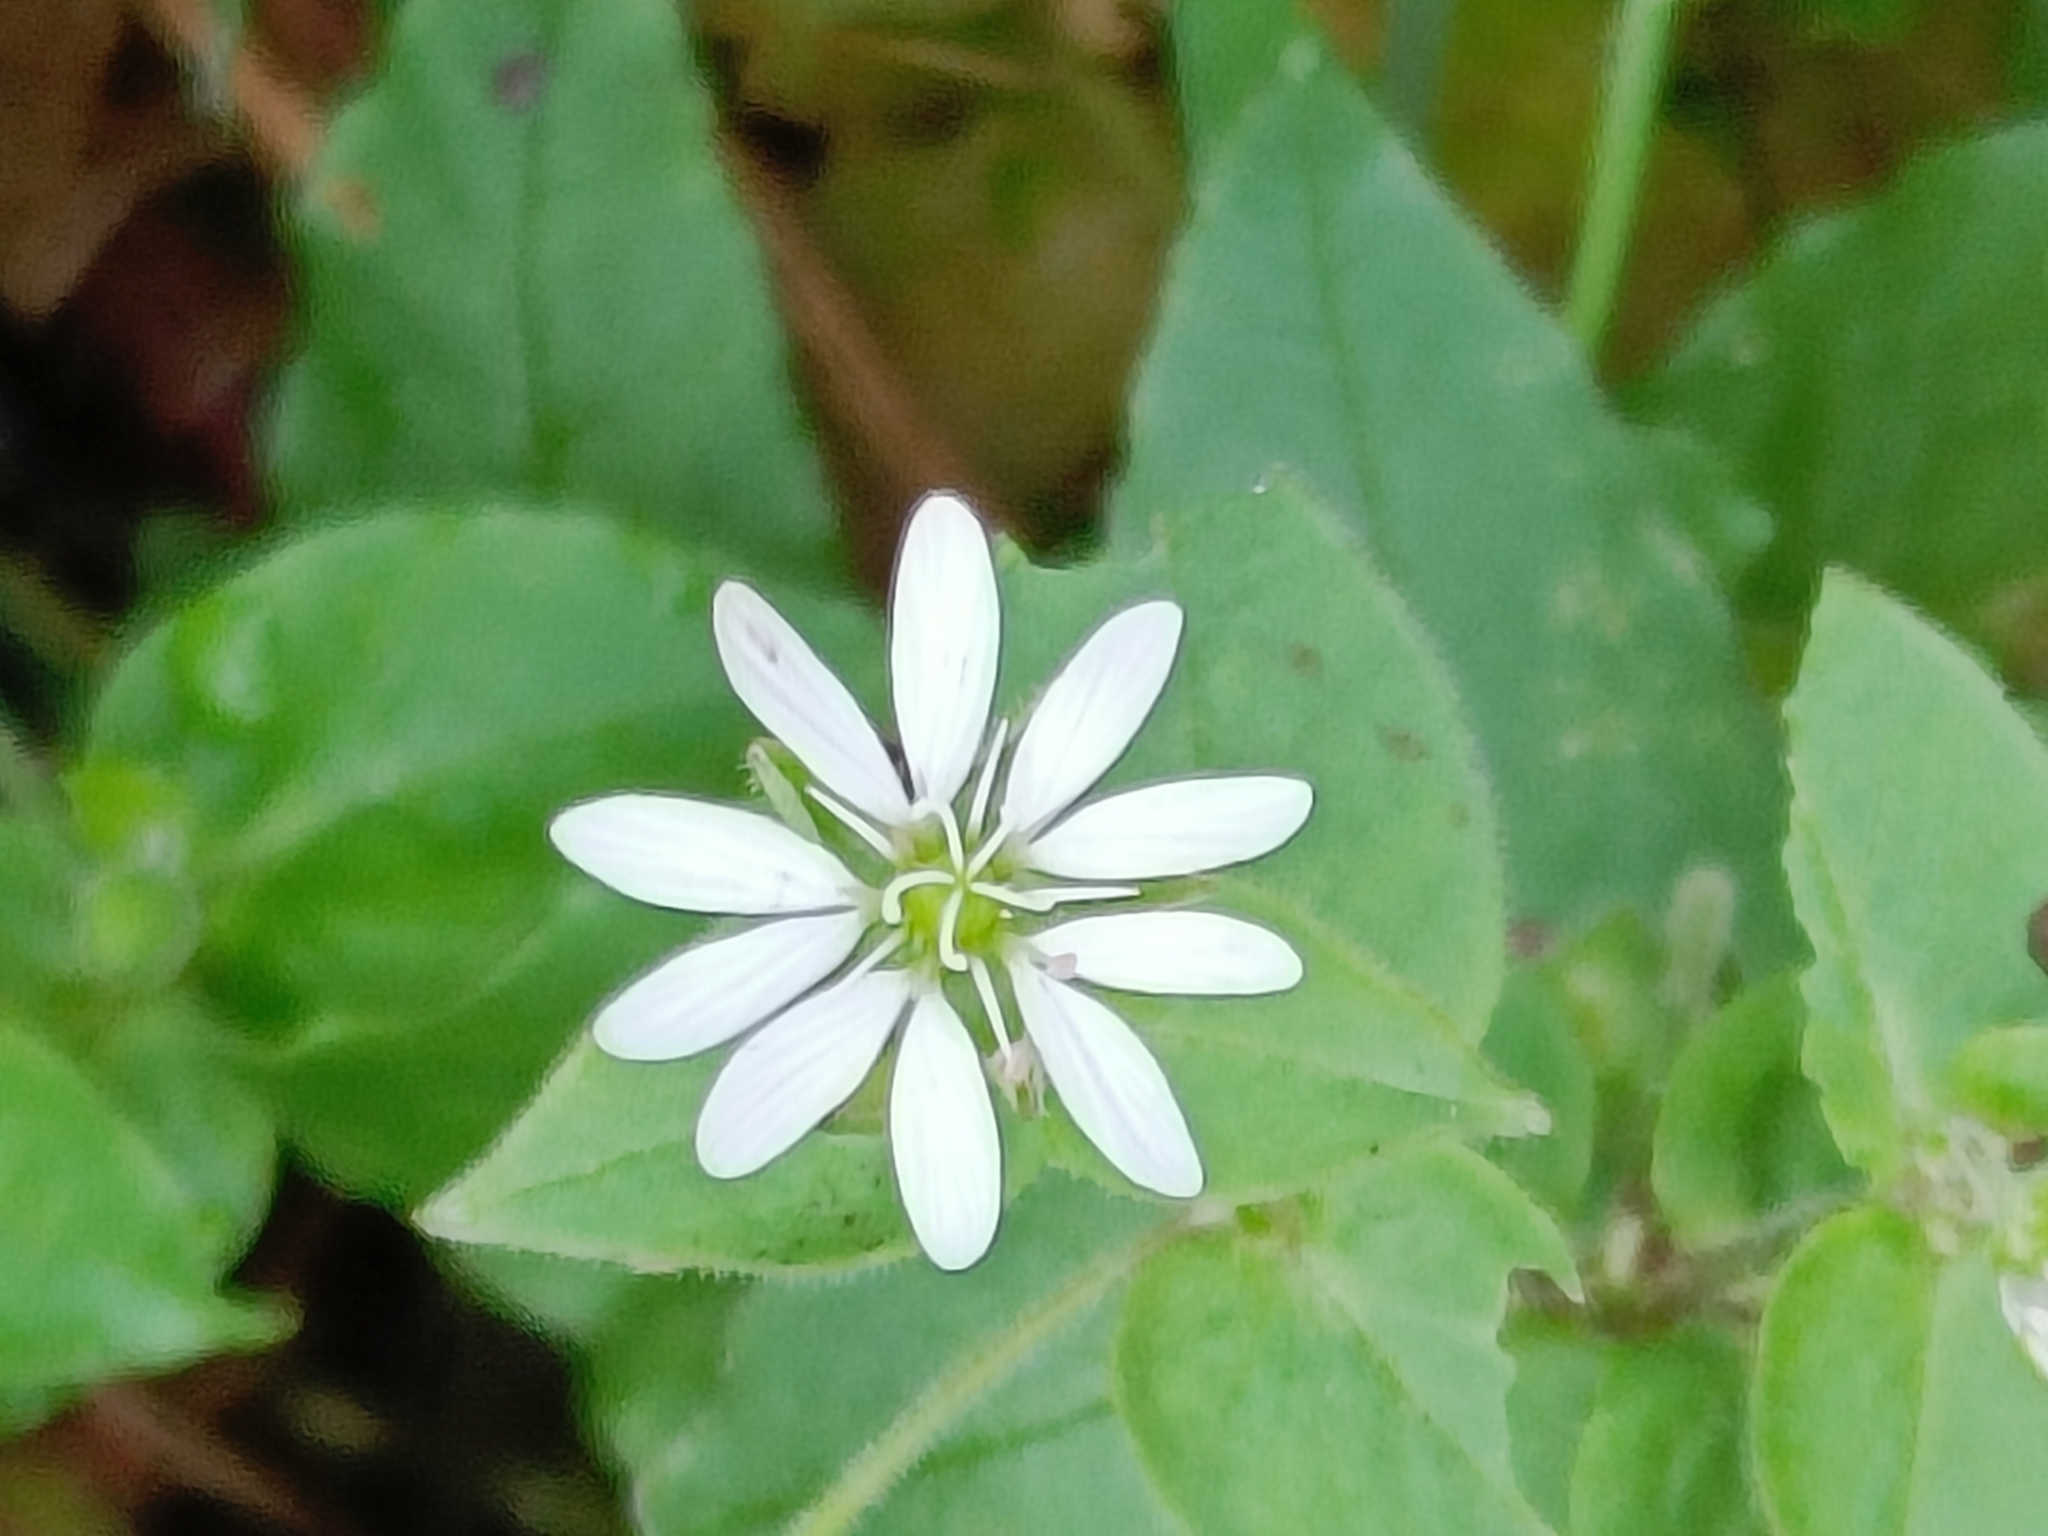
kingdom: Plantae
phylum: Tracheophyta
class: Magnoliopsida
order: Caryophyllales
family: Caryophyllaceae
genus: Stellaria
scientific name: Stellaria media
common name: Common chickweed
